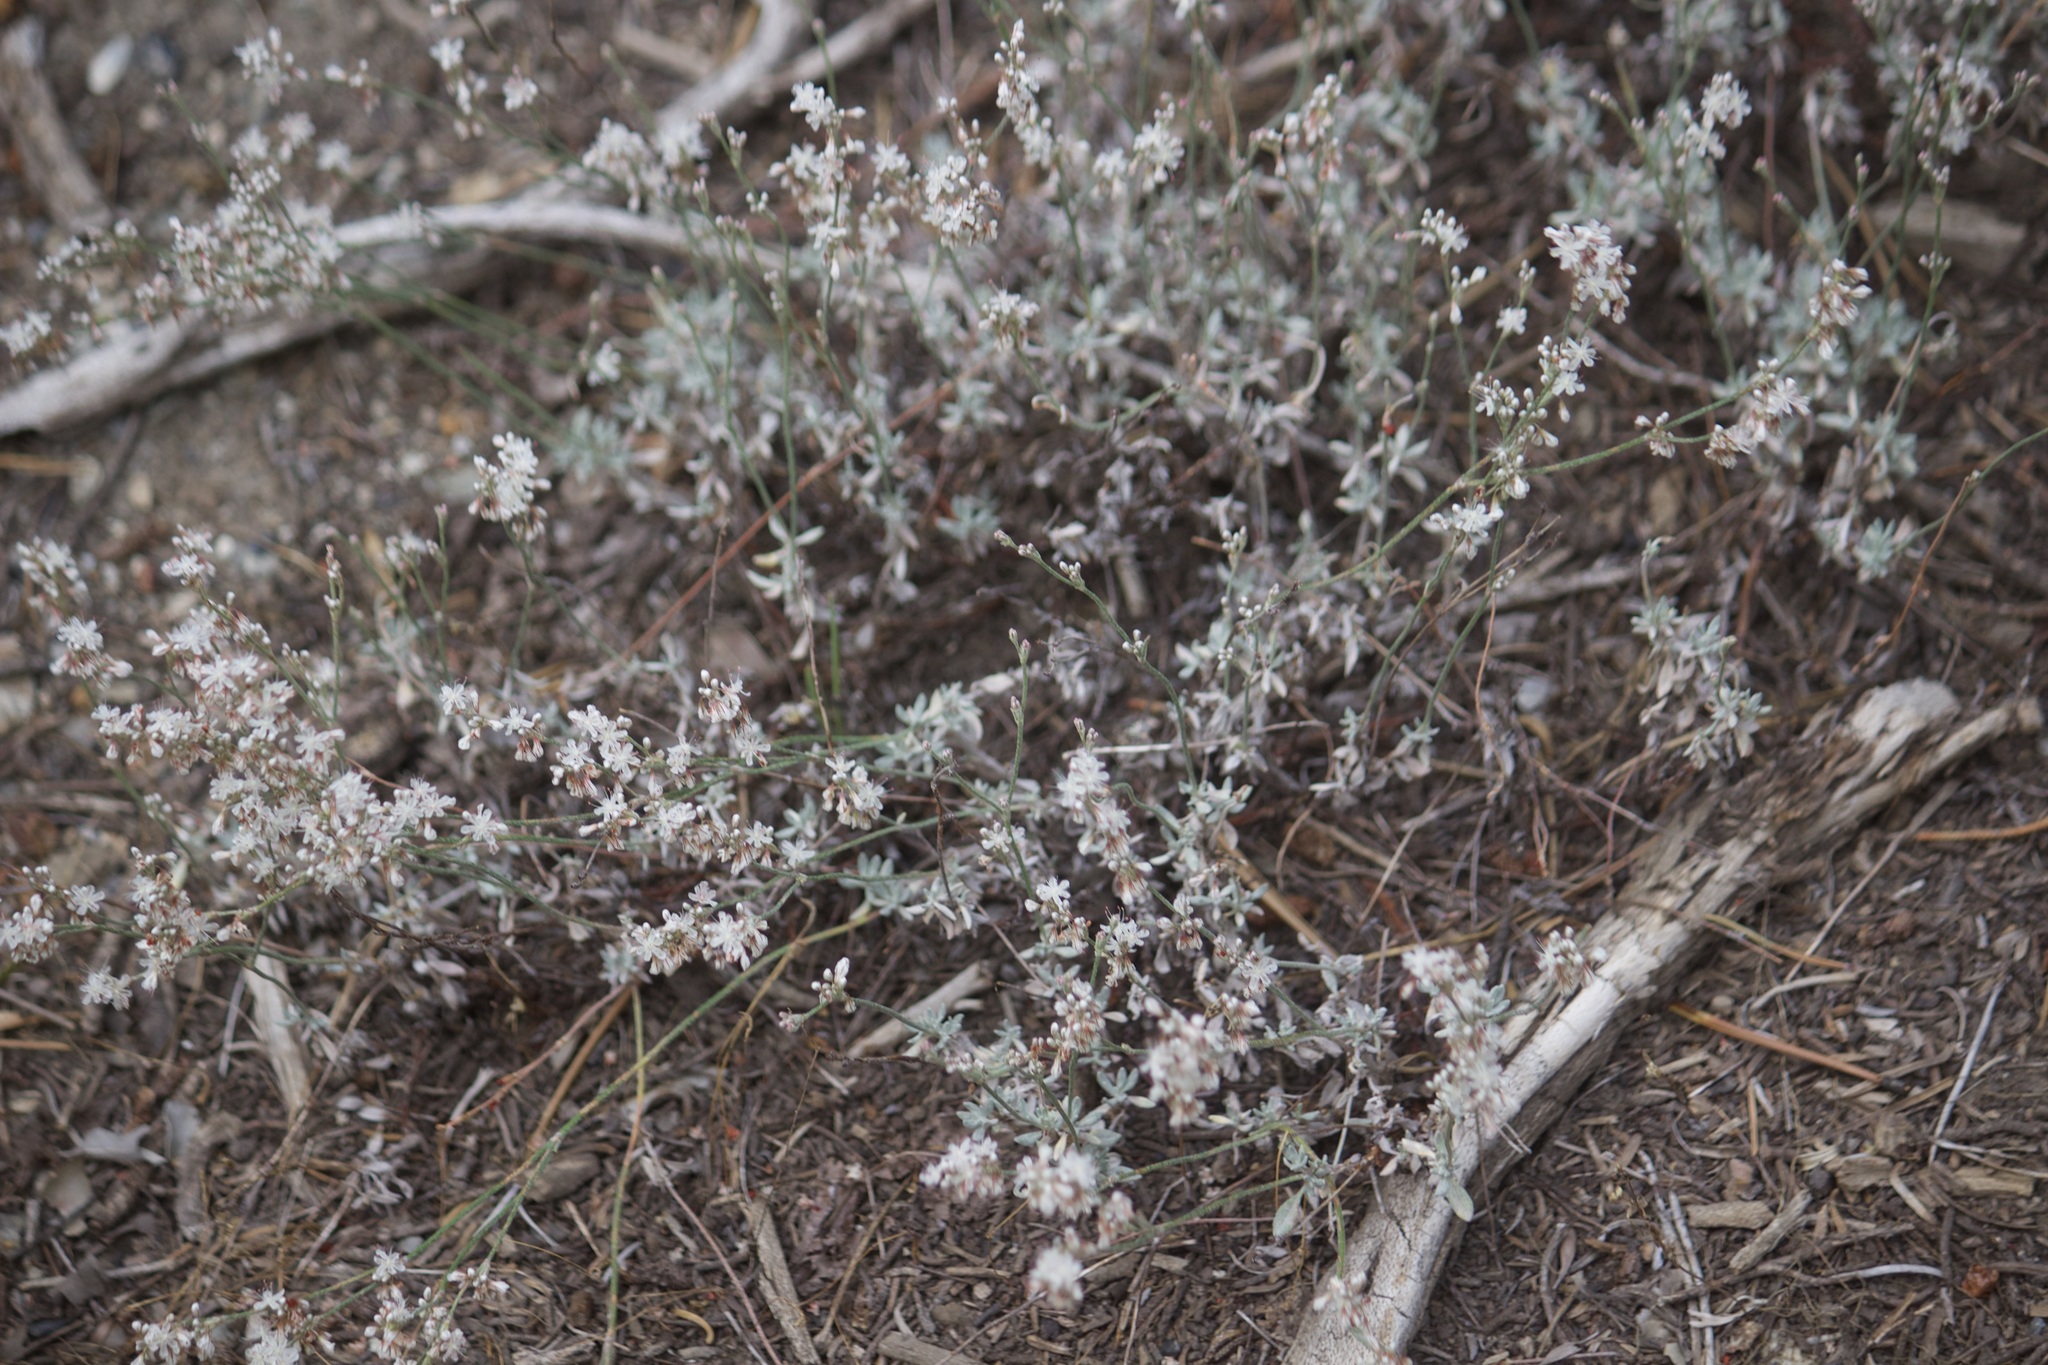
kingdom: Plantae
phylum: Tracheophyta
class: Magnoliopsida
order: Caryophyllales
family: Polygonaceae
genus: Eriogonum
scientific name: Eriogonum wrightii
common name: Bastard-sage
